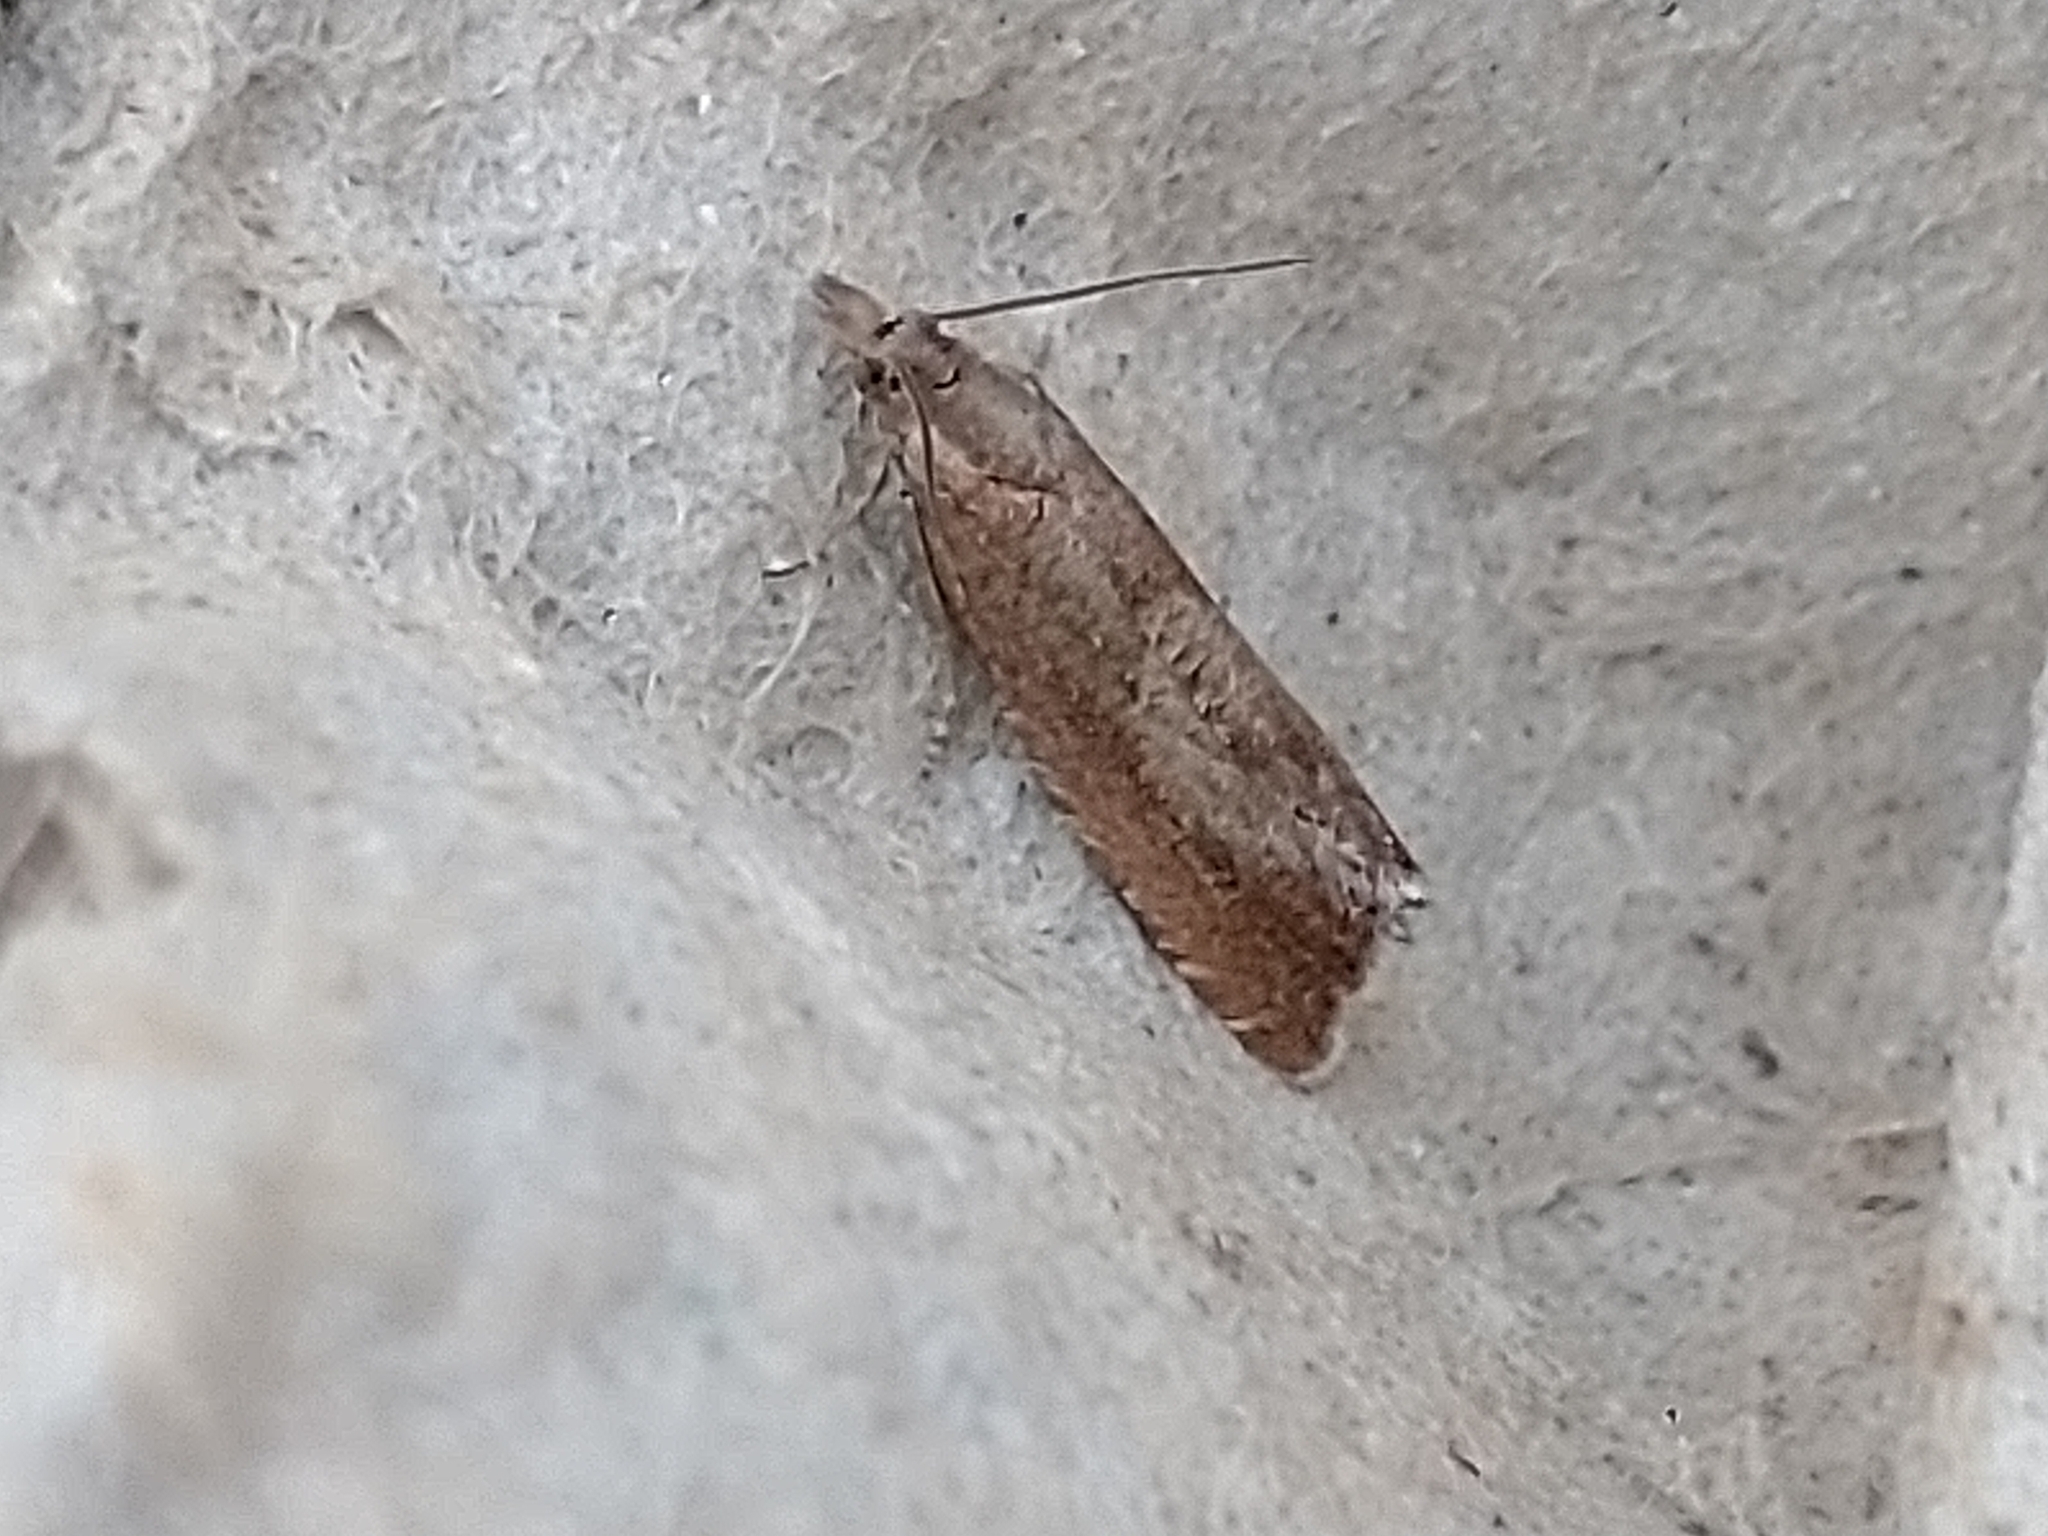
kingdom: Animalia
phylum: Arthropoda
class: Insecta
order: Lepidoptera
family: Tortricidae
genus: Dichrorampha
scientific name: Dichrorampha acuminatana
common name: Sharp-winged drill
